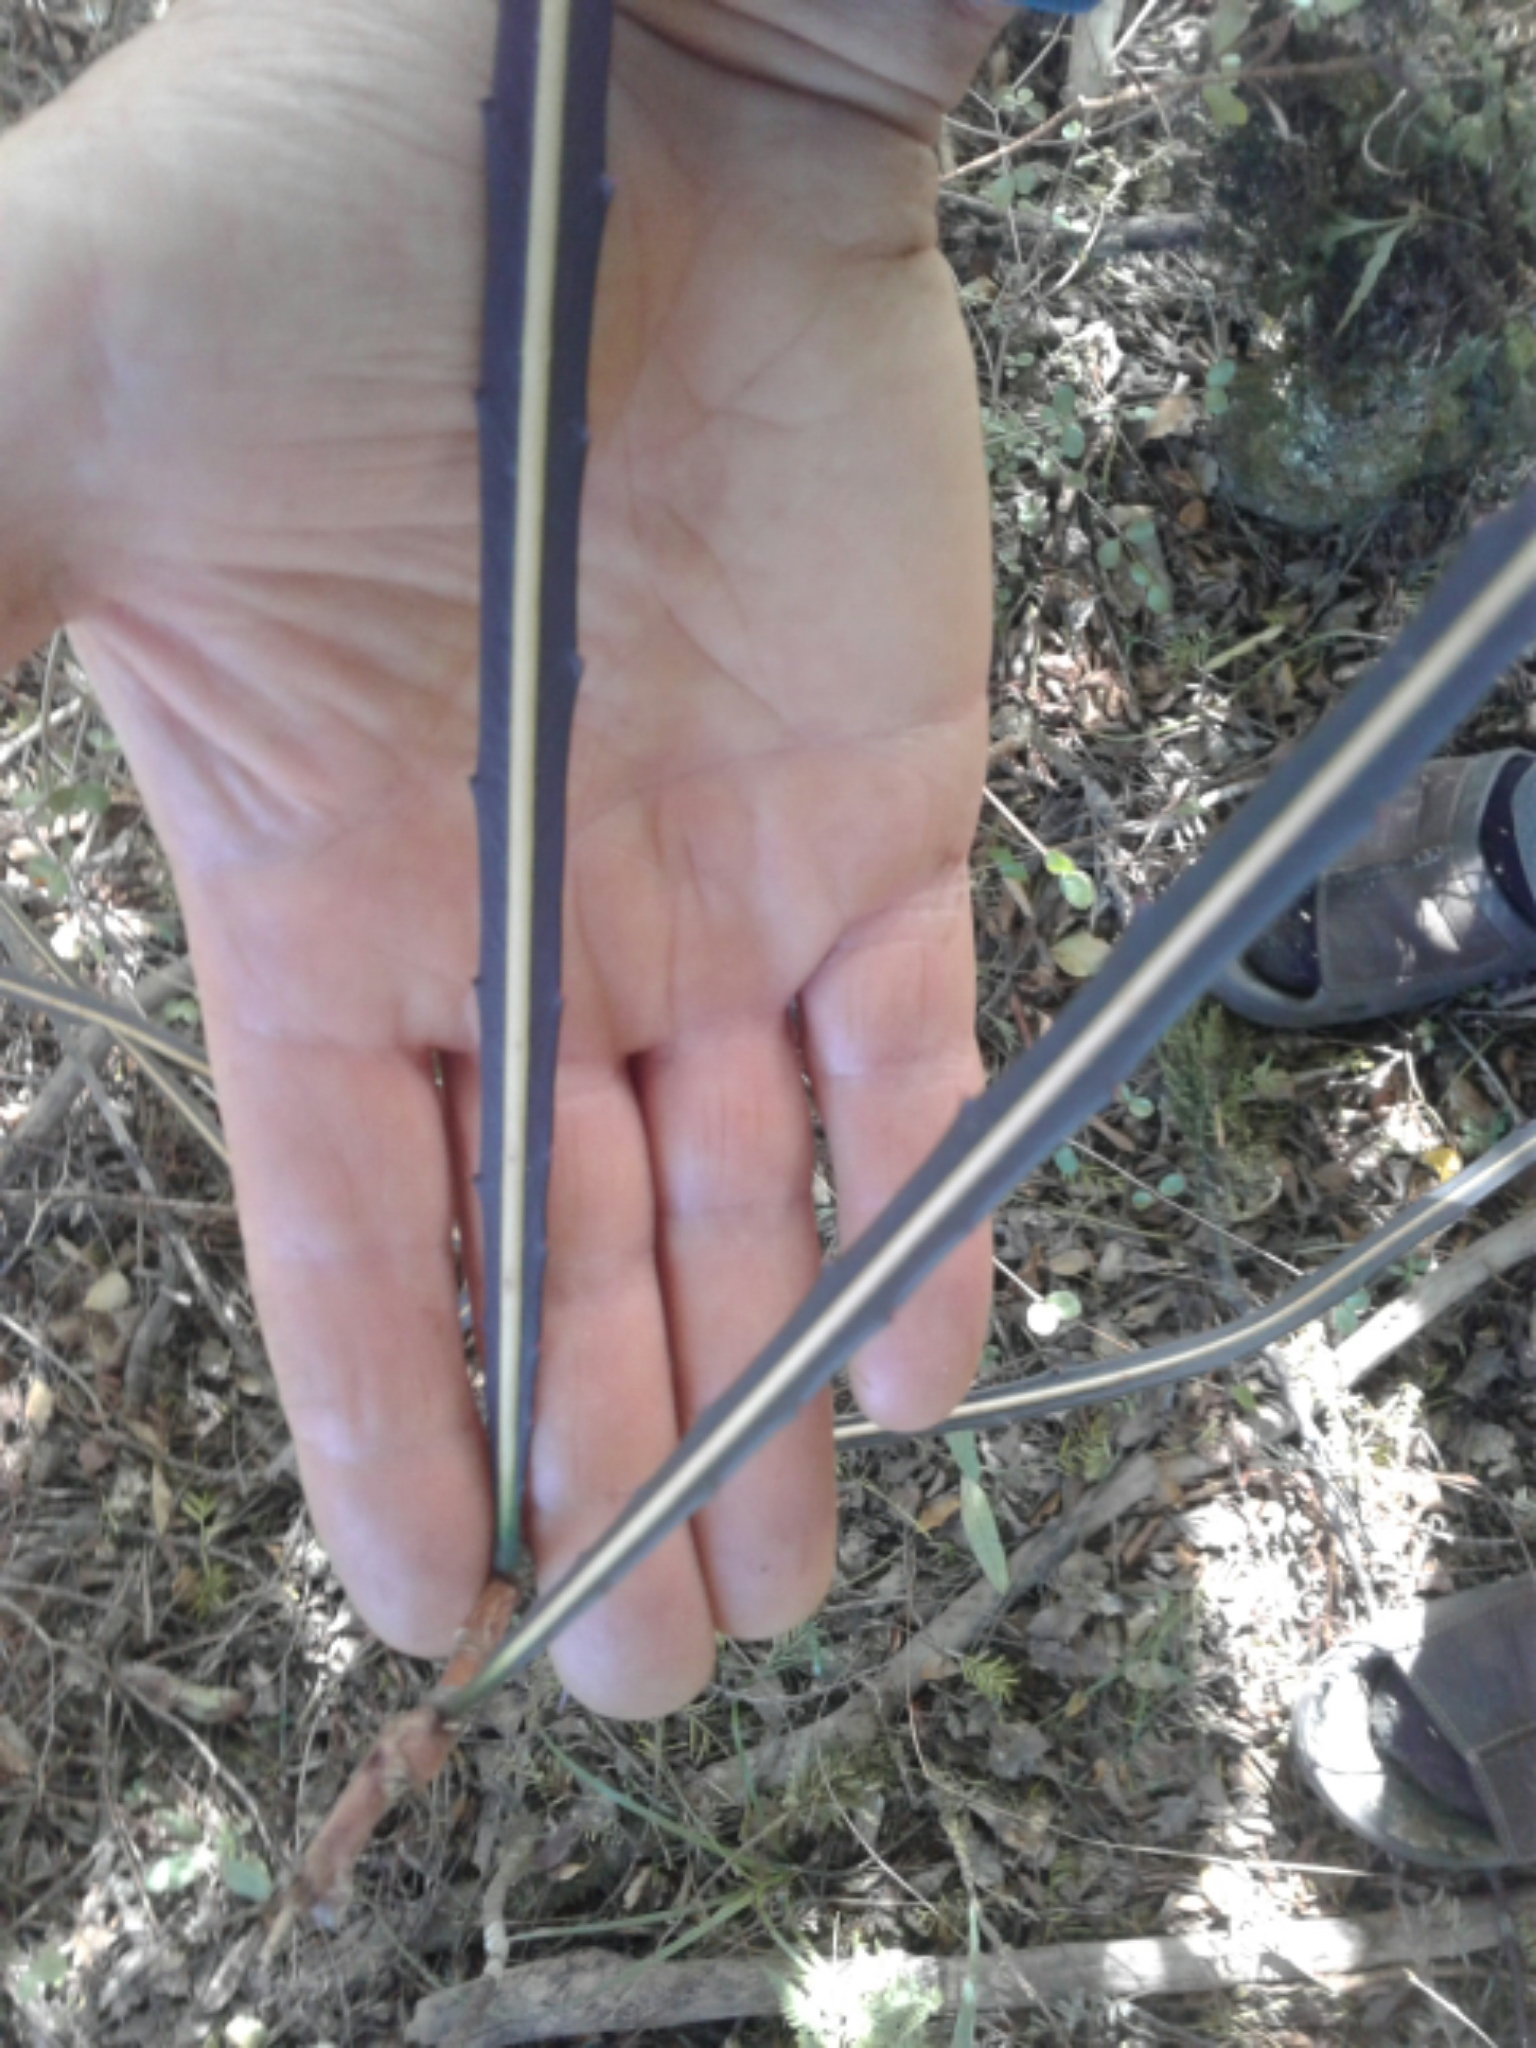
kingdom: Plantae
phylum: Tracheophyta
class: Magnoliopsida
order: Apiales
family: Araliaceae
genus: Pseudopanax
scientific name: Pseudopanax crassifolius
